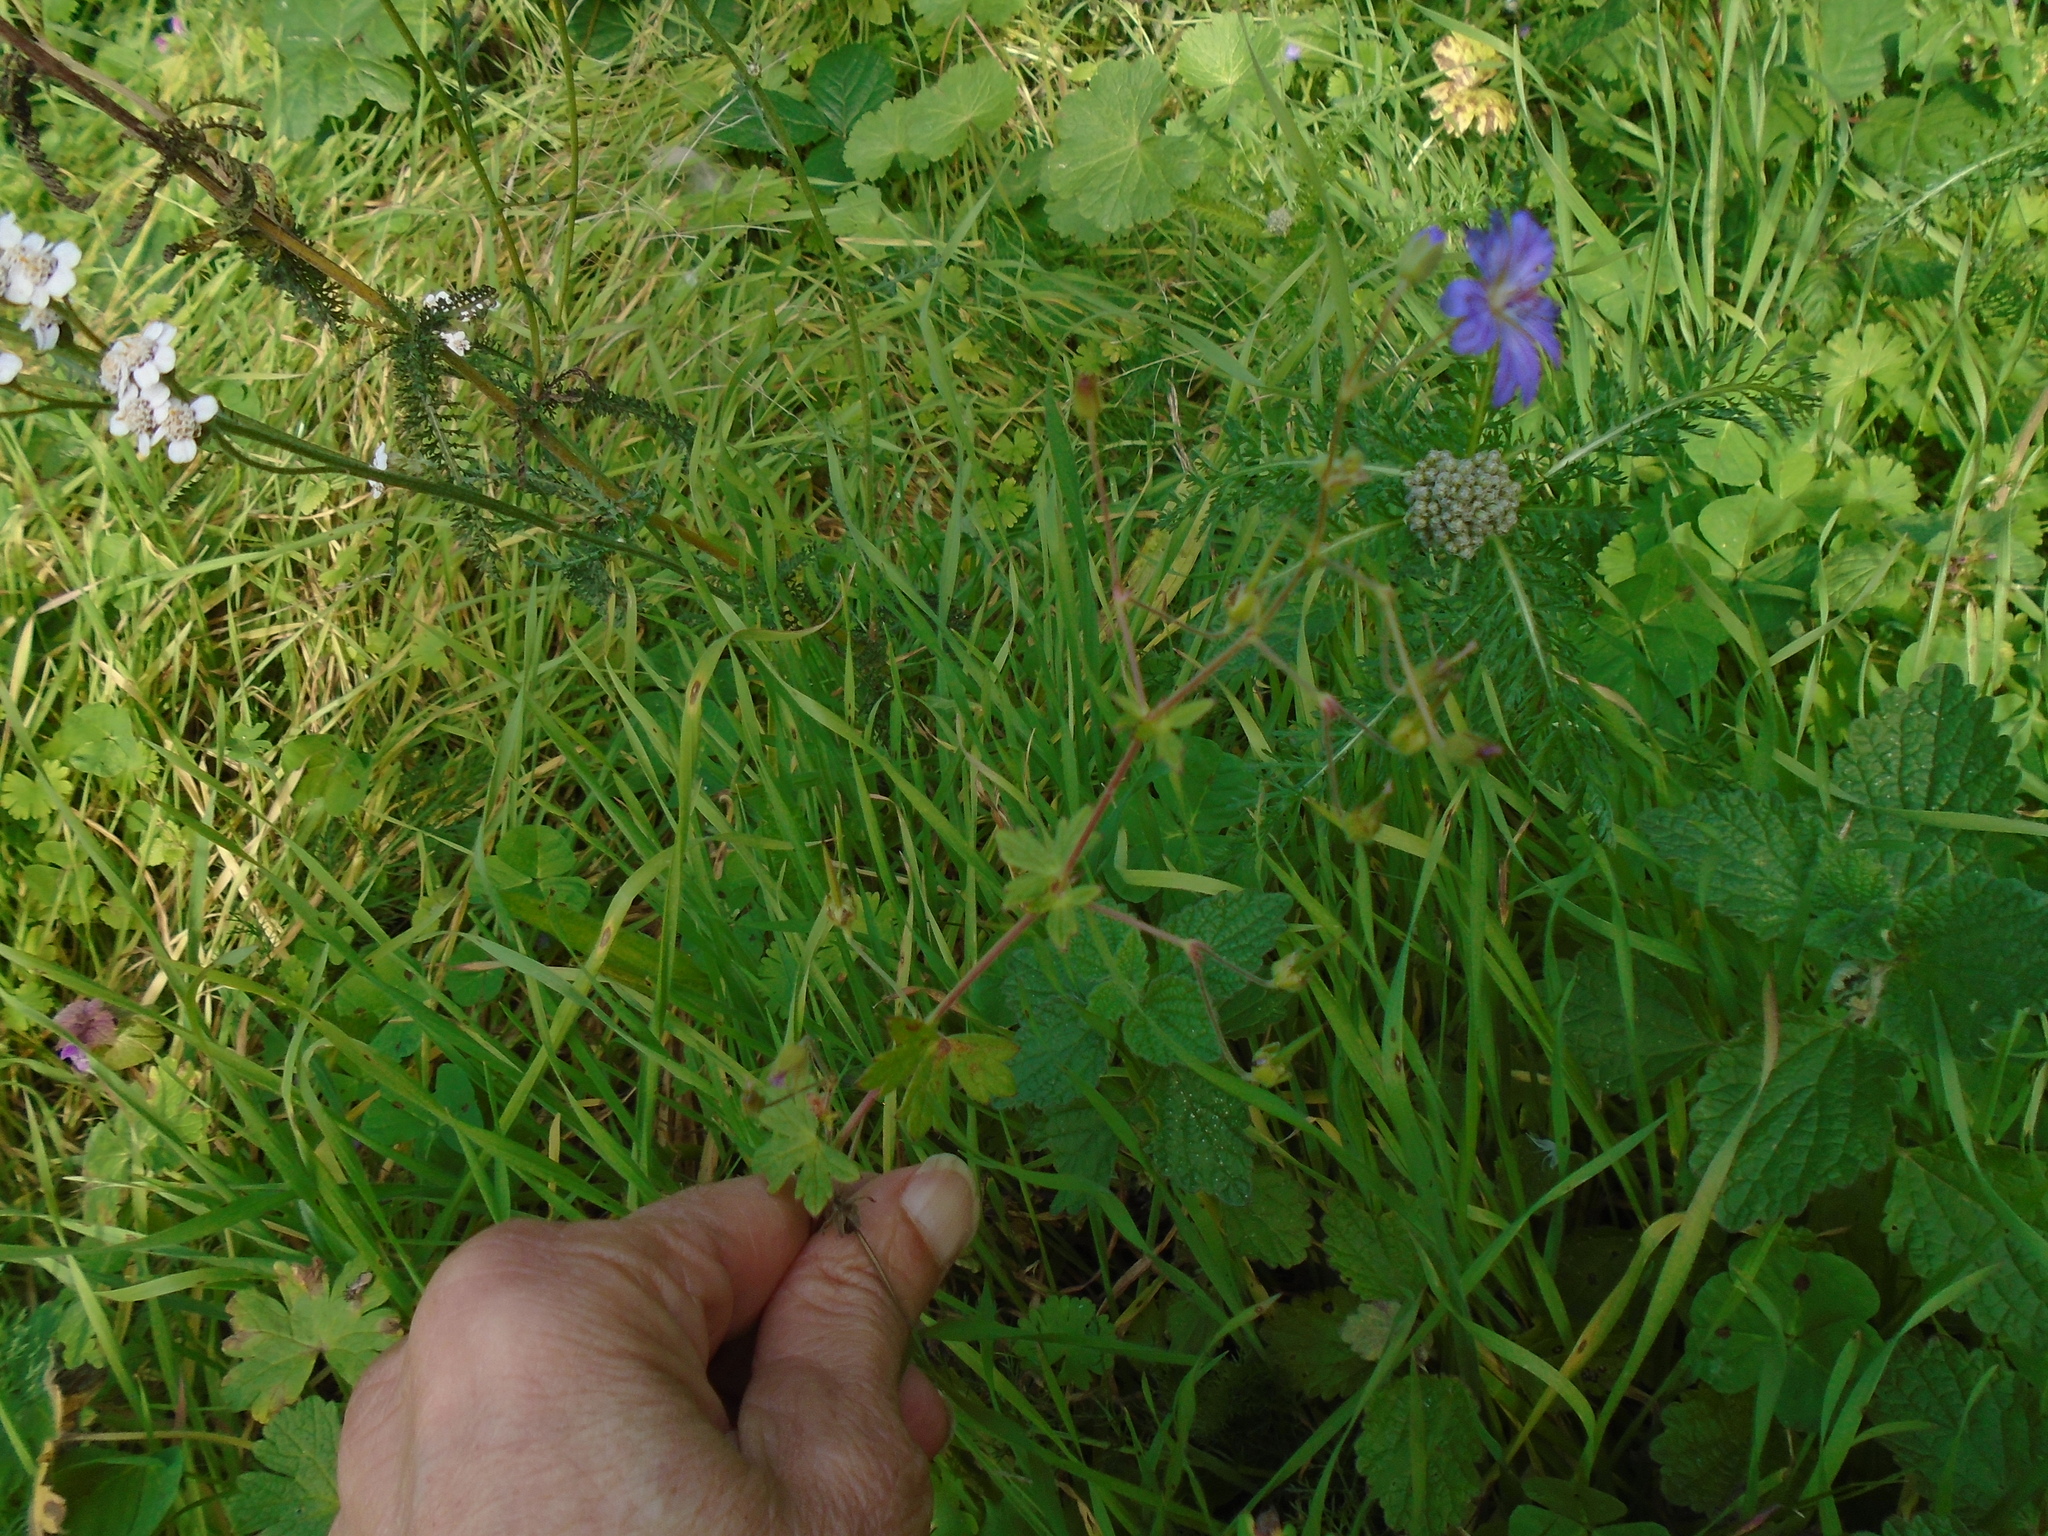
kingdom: Plantae
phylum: Tracheophyta
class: Magnoliopsida
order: Geraniales
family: Geraniaceae
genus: Geranium
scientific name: Geranium pyrenaicum
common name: Hedgerow crane's-bill
